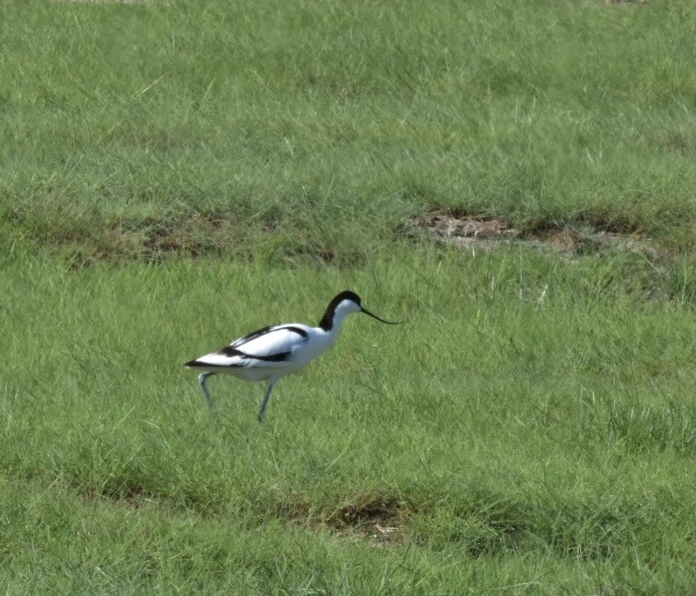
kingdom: Animalia
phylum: Chordata
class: Aves
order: Charadriiformes
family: Recurvirostridae
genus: Recurvirostra
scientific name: Recurvirostra avosetta
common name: Pied avocet
